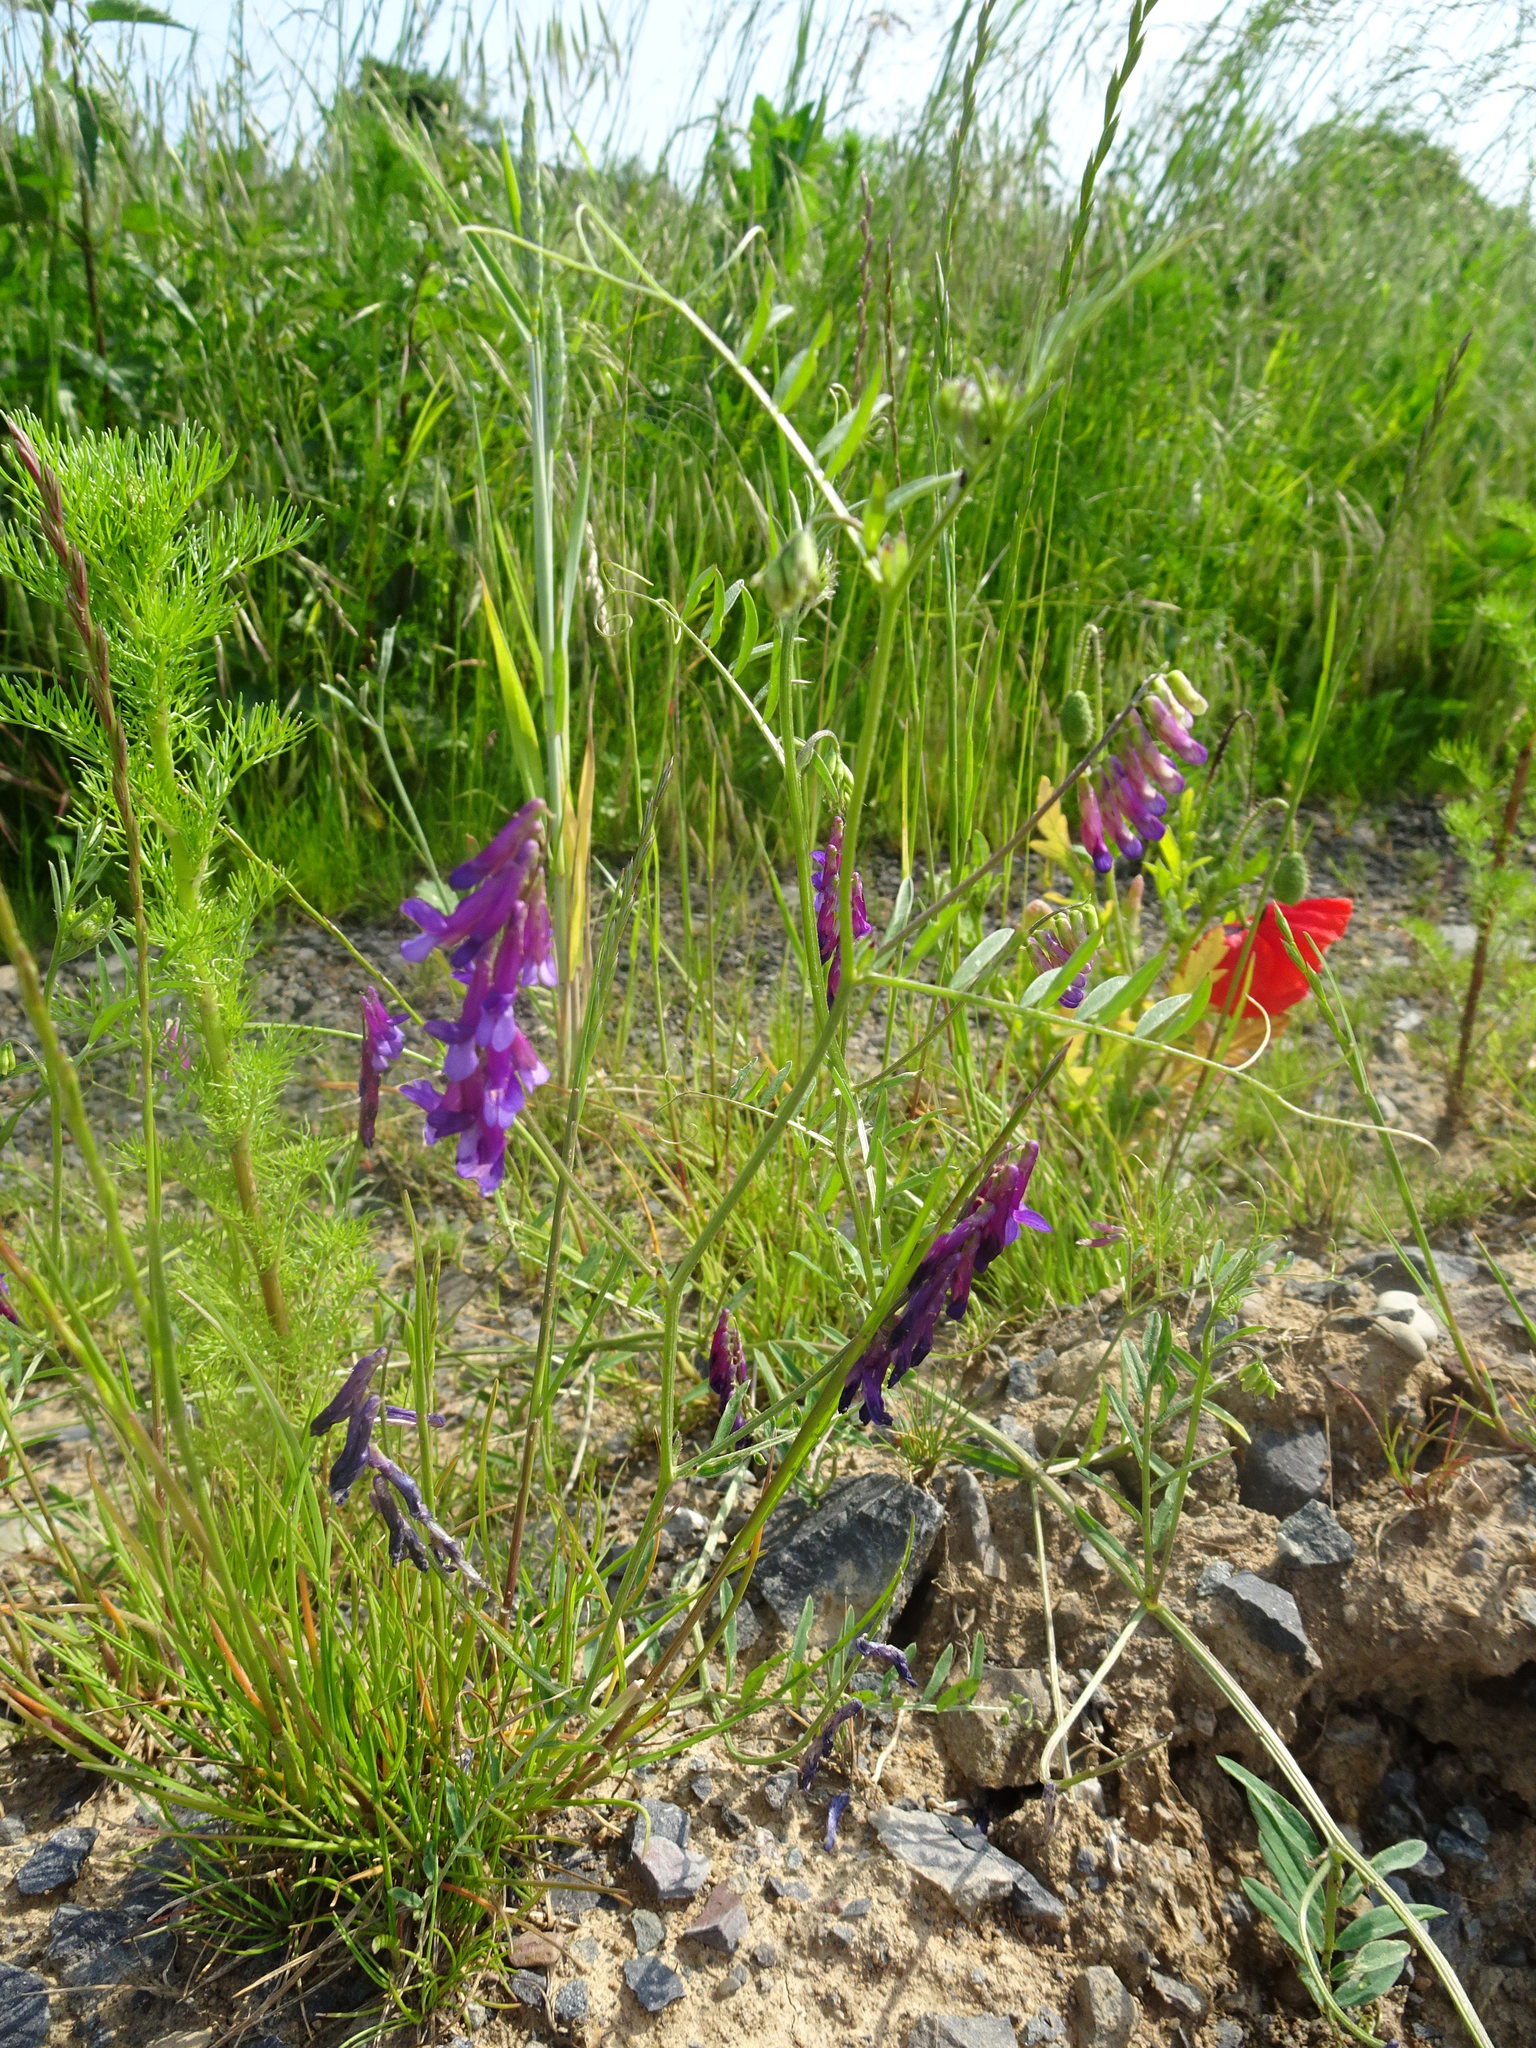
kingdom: Plantae
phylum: Tracheophyta
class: Magnoliopsida
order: Fabales
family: Fabaceae
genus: Vicia
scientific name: Vicia villosa
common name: Fodder vetch
